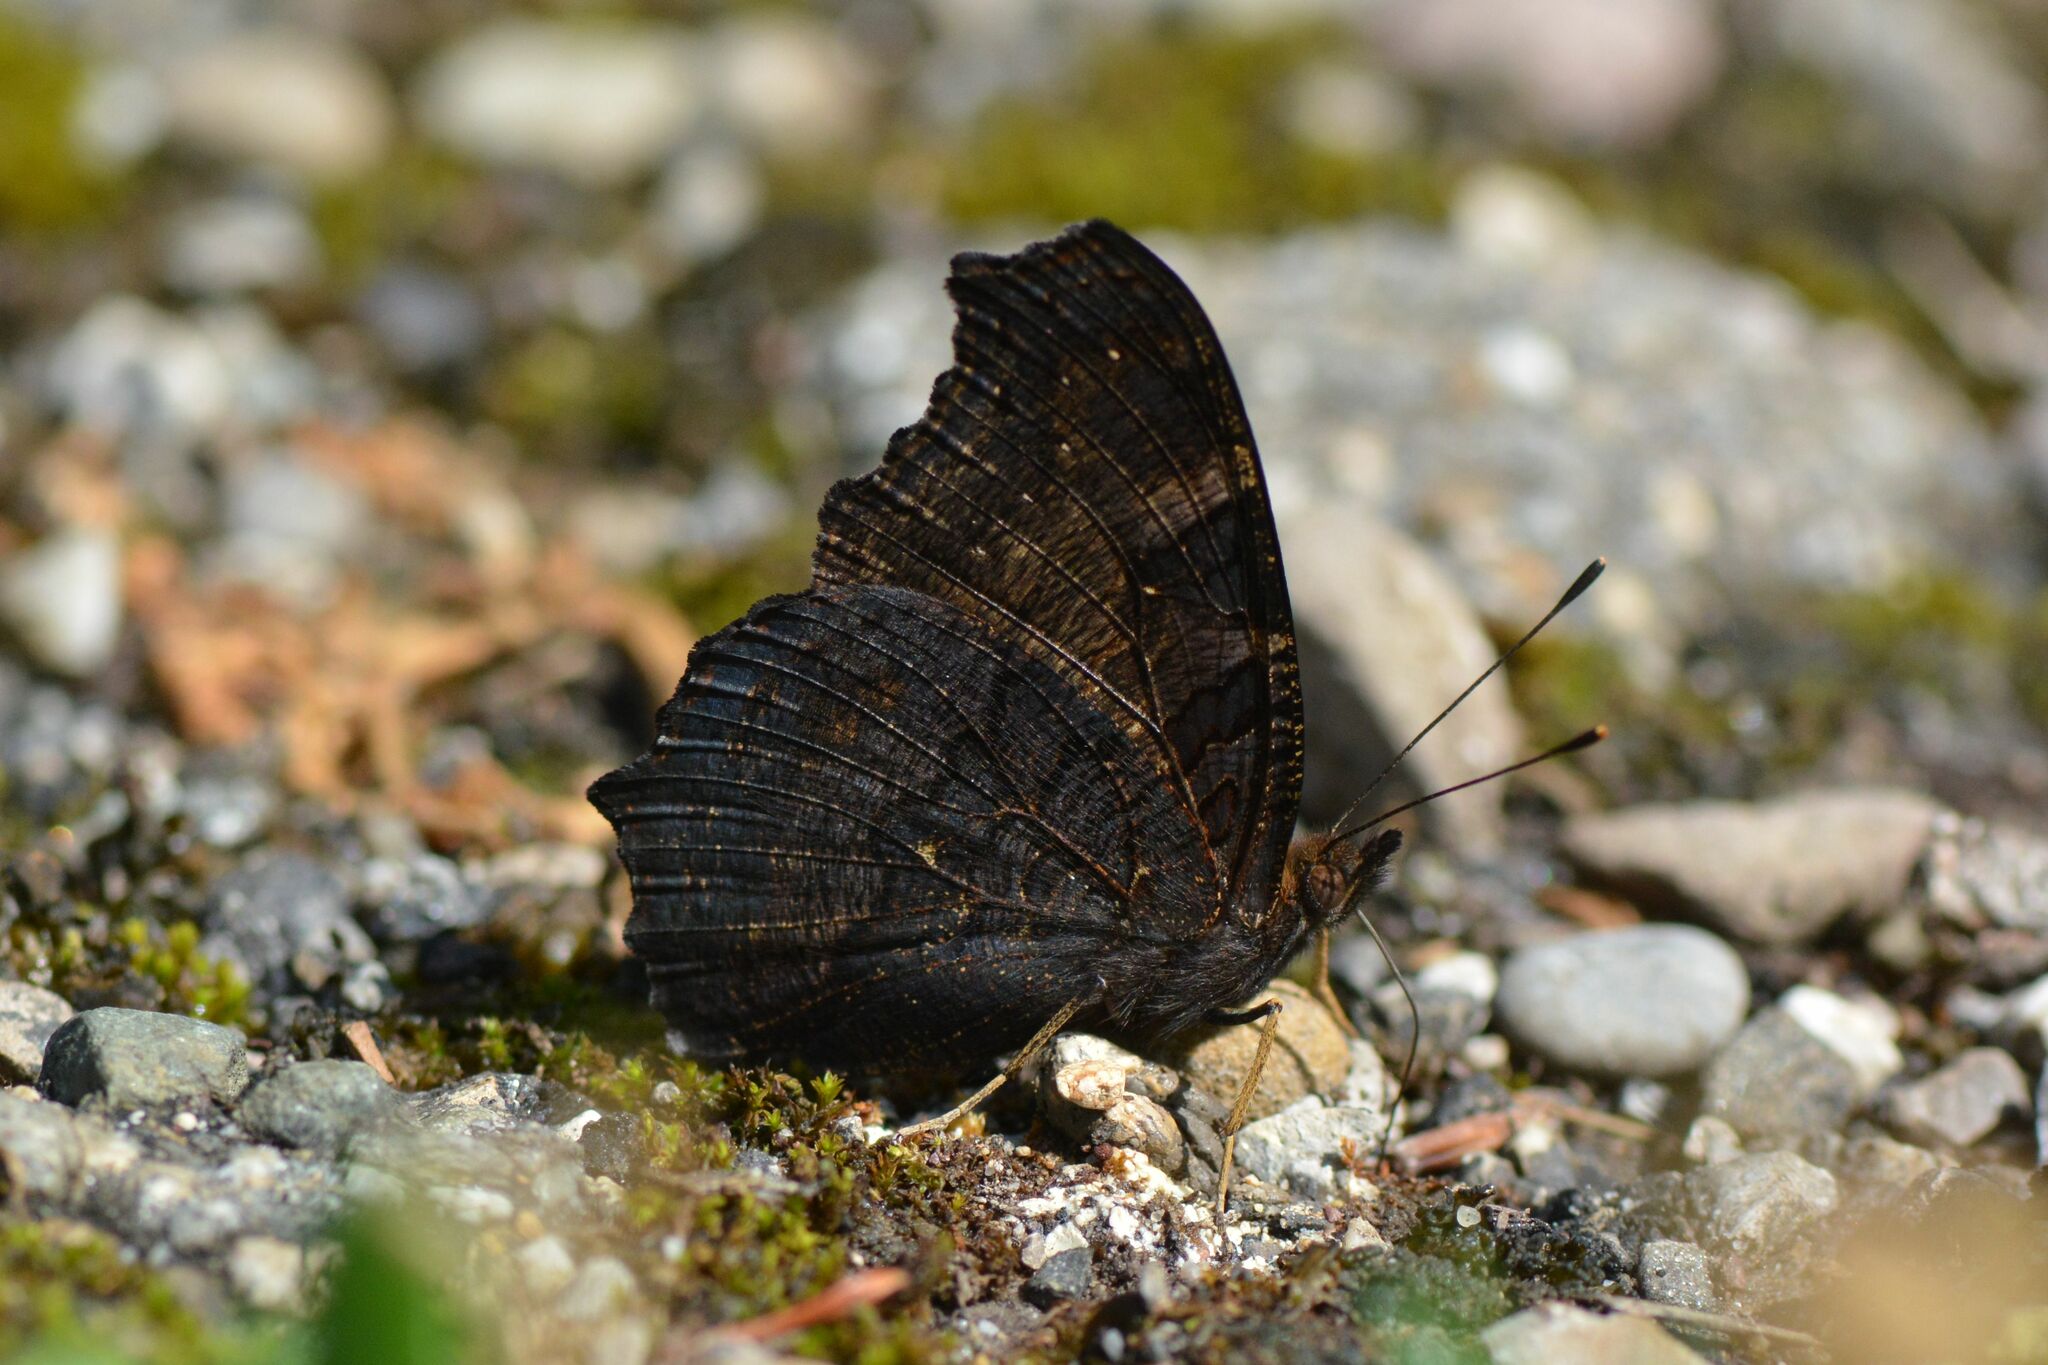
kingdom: Animalia
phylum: Arthropoda
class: Insecta
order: Lepidoptera
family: Nymphalidae
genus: Aglais
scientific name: Aglais io
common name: Peacock
